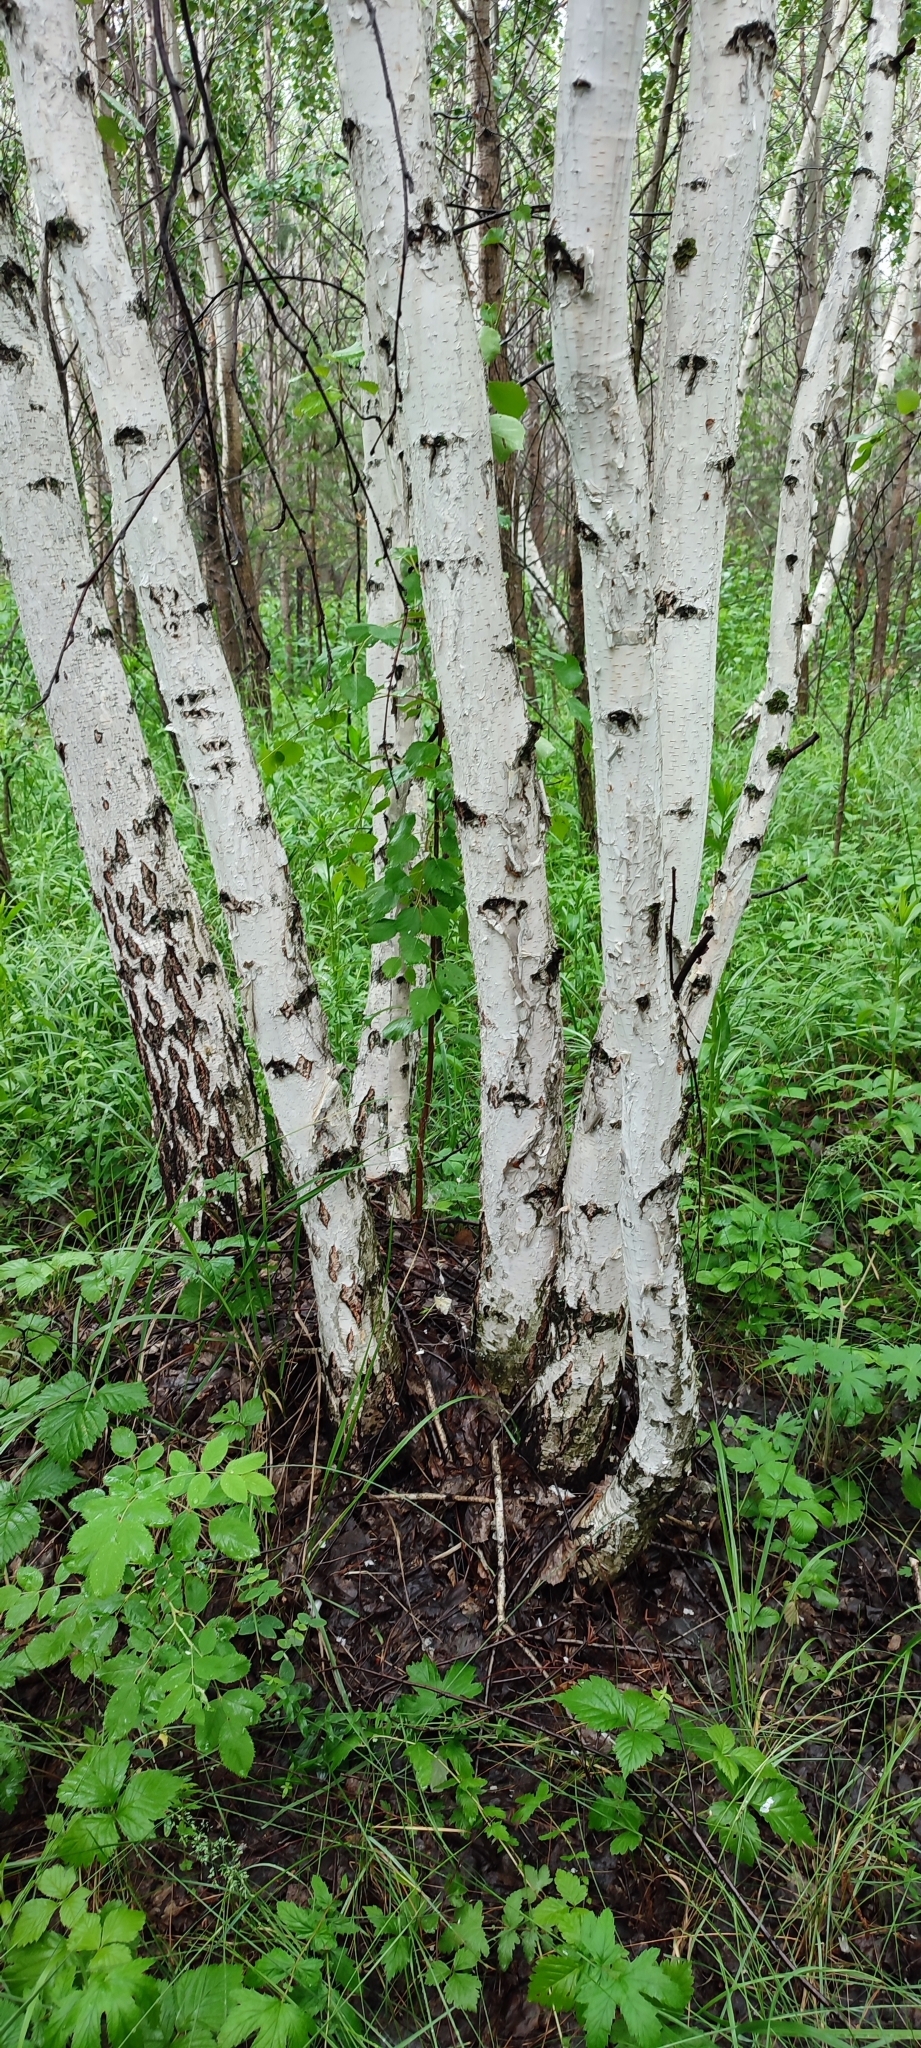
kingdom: Plantae
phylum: Tracheophyta
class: Magnoliopsida
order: Fagales
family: Betulaceae
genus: Betula
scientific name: Betula pendula
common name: Silver birch
